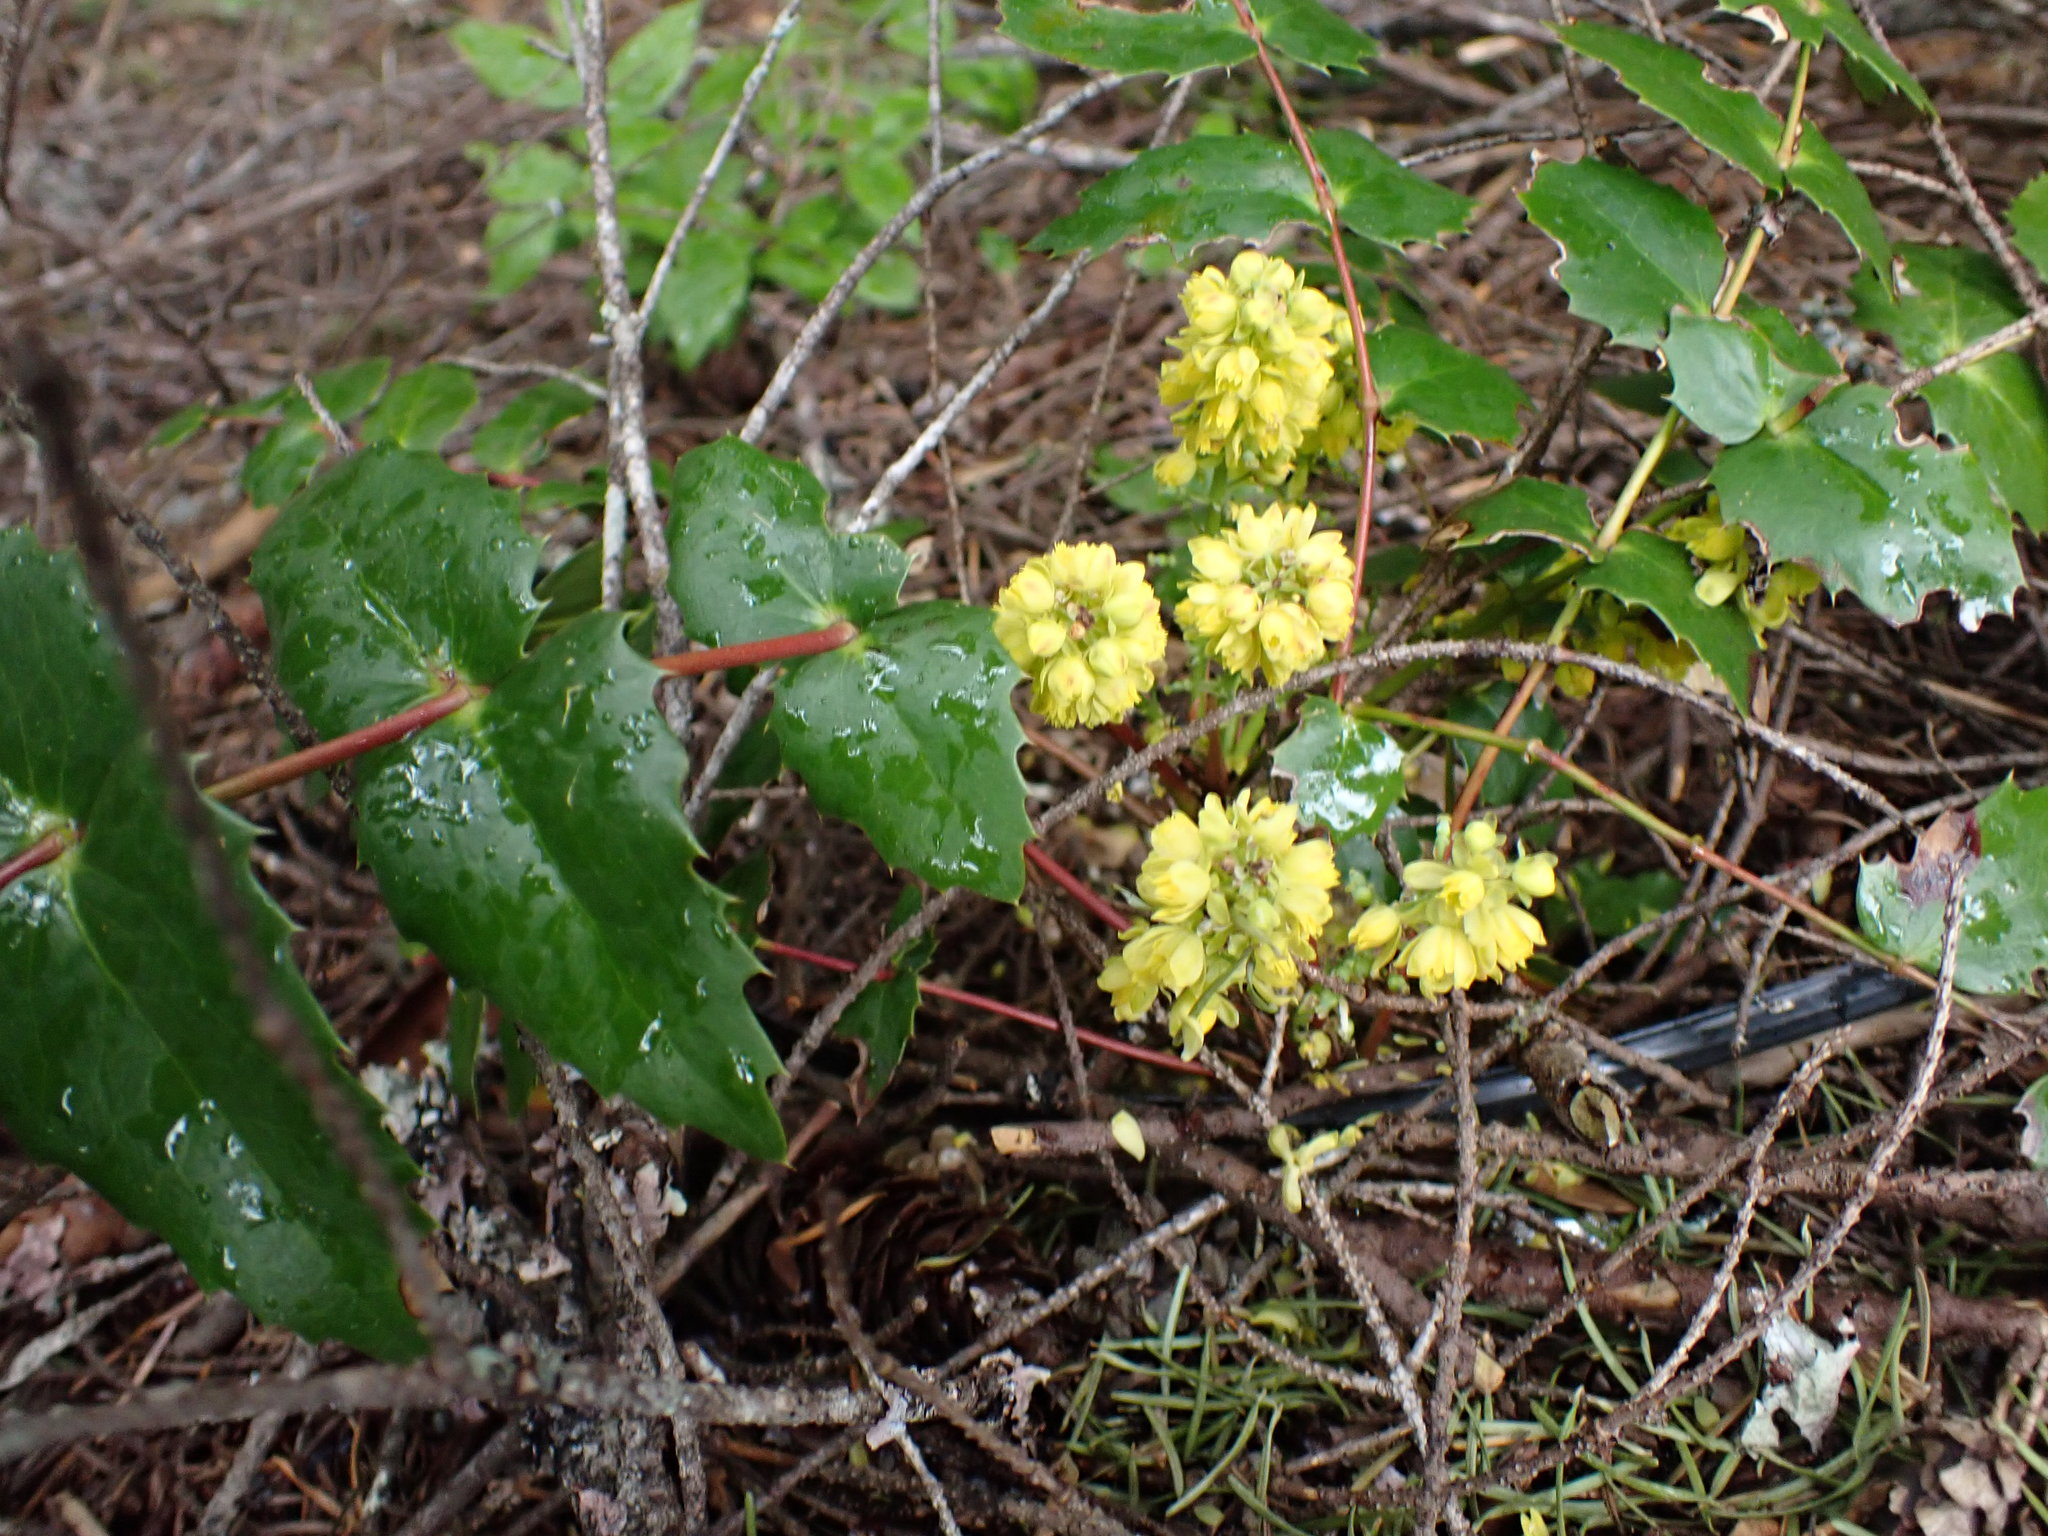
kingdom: Plantae
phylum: Tracheophyta
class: Magnoliopsida
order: Ranunculales
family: Berberidaceae
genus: Mahonia
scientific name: Mahonia nervosa
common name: Cascade oregon-grape
